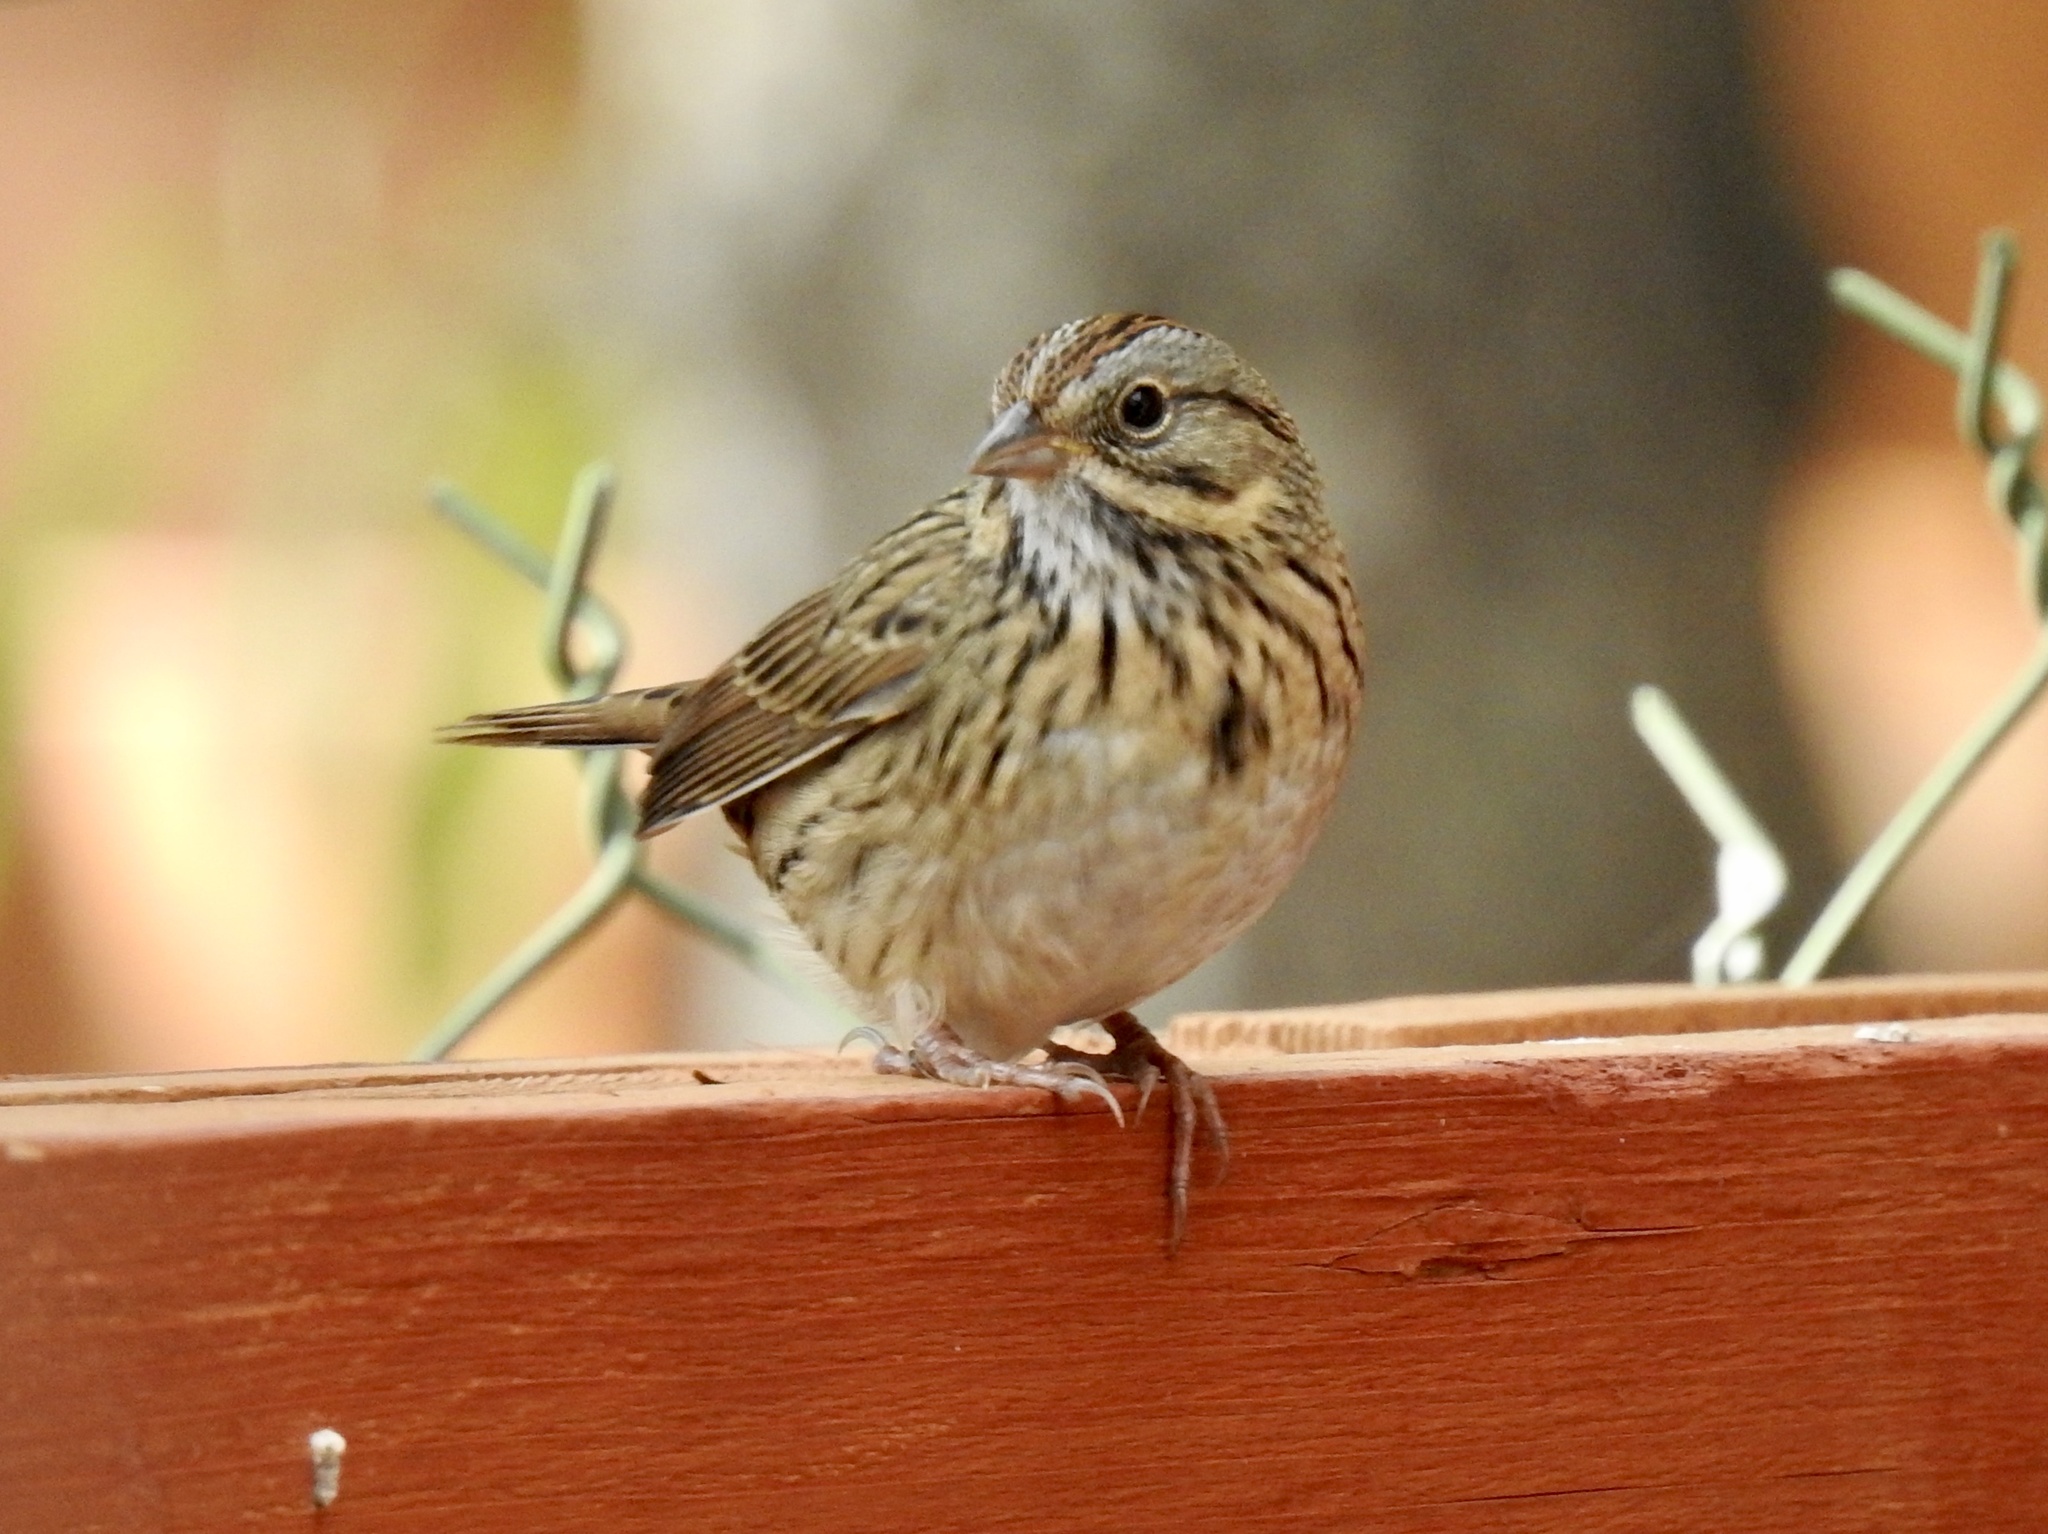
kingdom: Animalia
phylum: Chordata
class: Aves
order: Passeriformes
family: Passerellidae
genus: Melospiza
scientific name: Melospiza lincolnii
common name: Lincoln's sparrow
